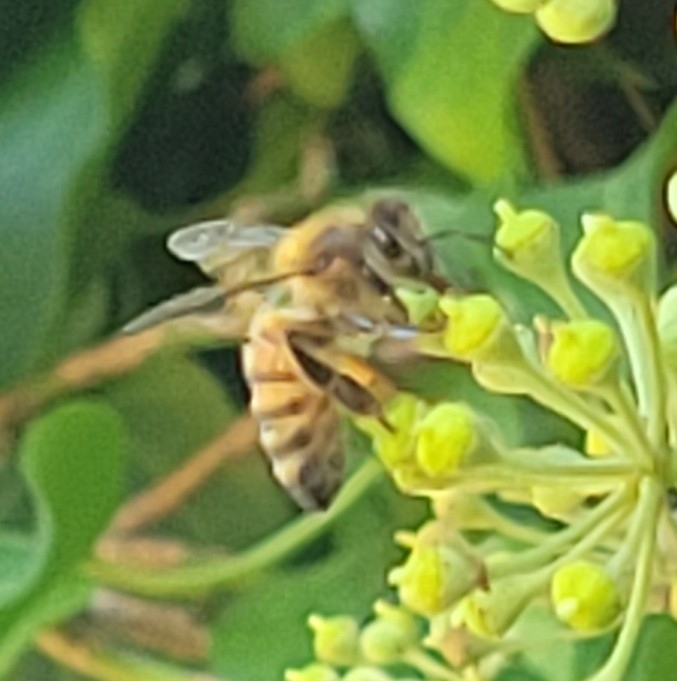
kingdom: Animalia
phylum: Arthropoda
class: Insecta
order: Hymenoptera
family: Apidae
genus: Apis
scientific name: Apis mellifera
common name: Honey bee
